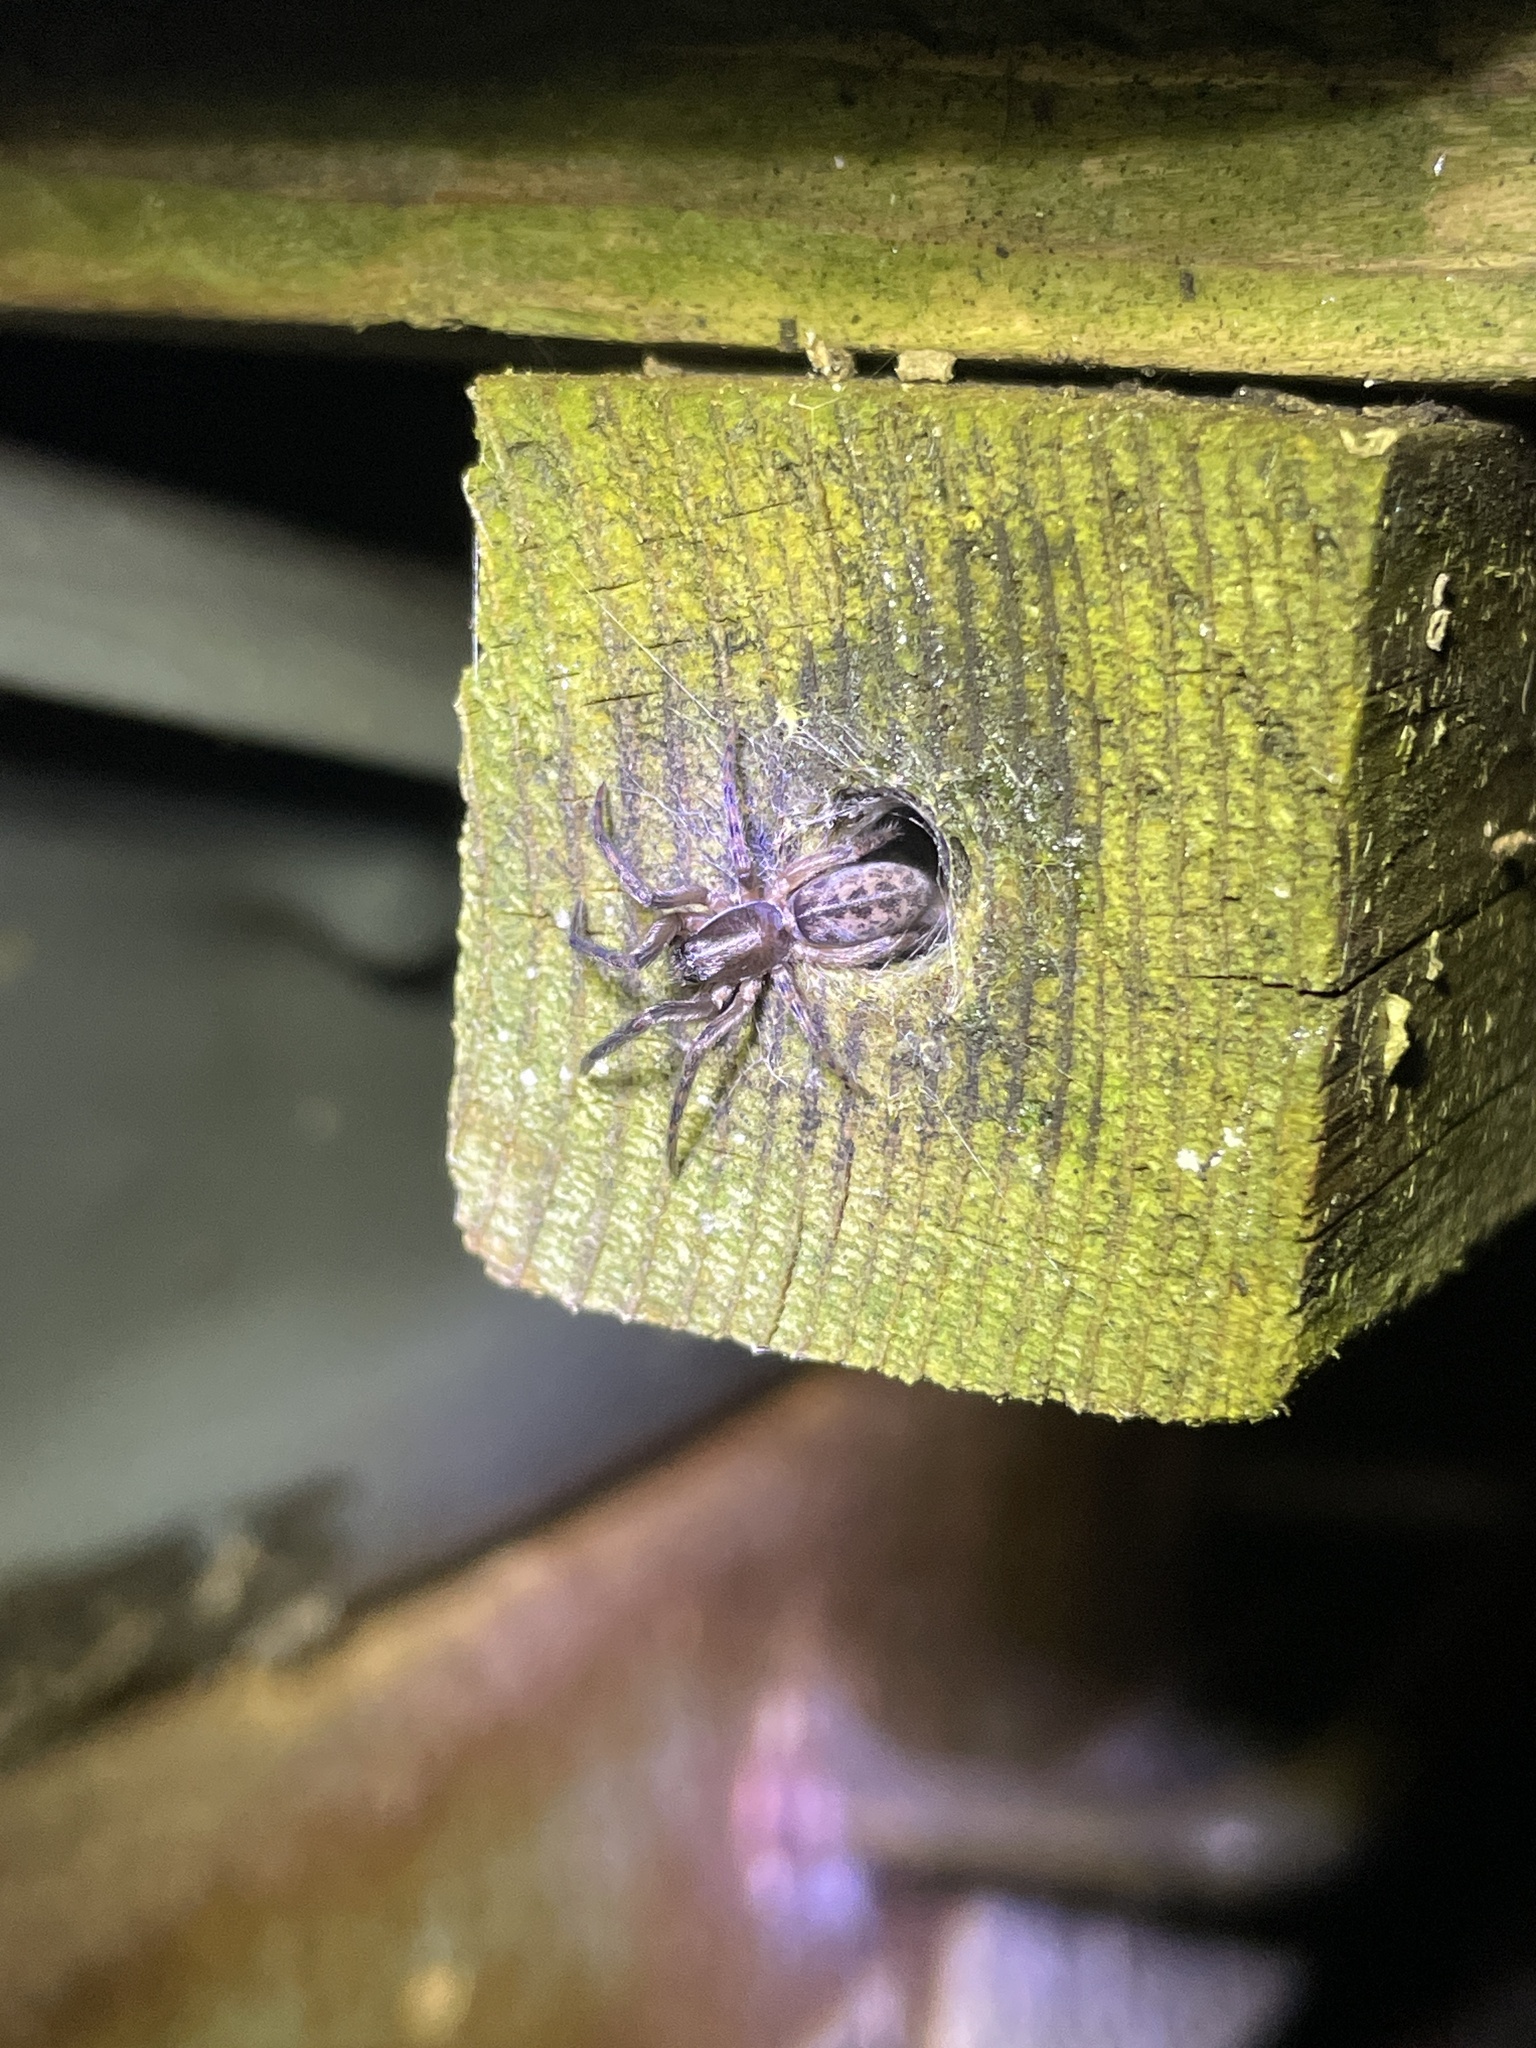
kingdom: Animalia
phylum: Arthropoda
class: Arachnida
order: Araneae
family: Segestriidae
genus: Segestria
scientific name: Segestria senoculata
